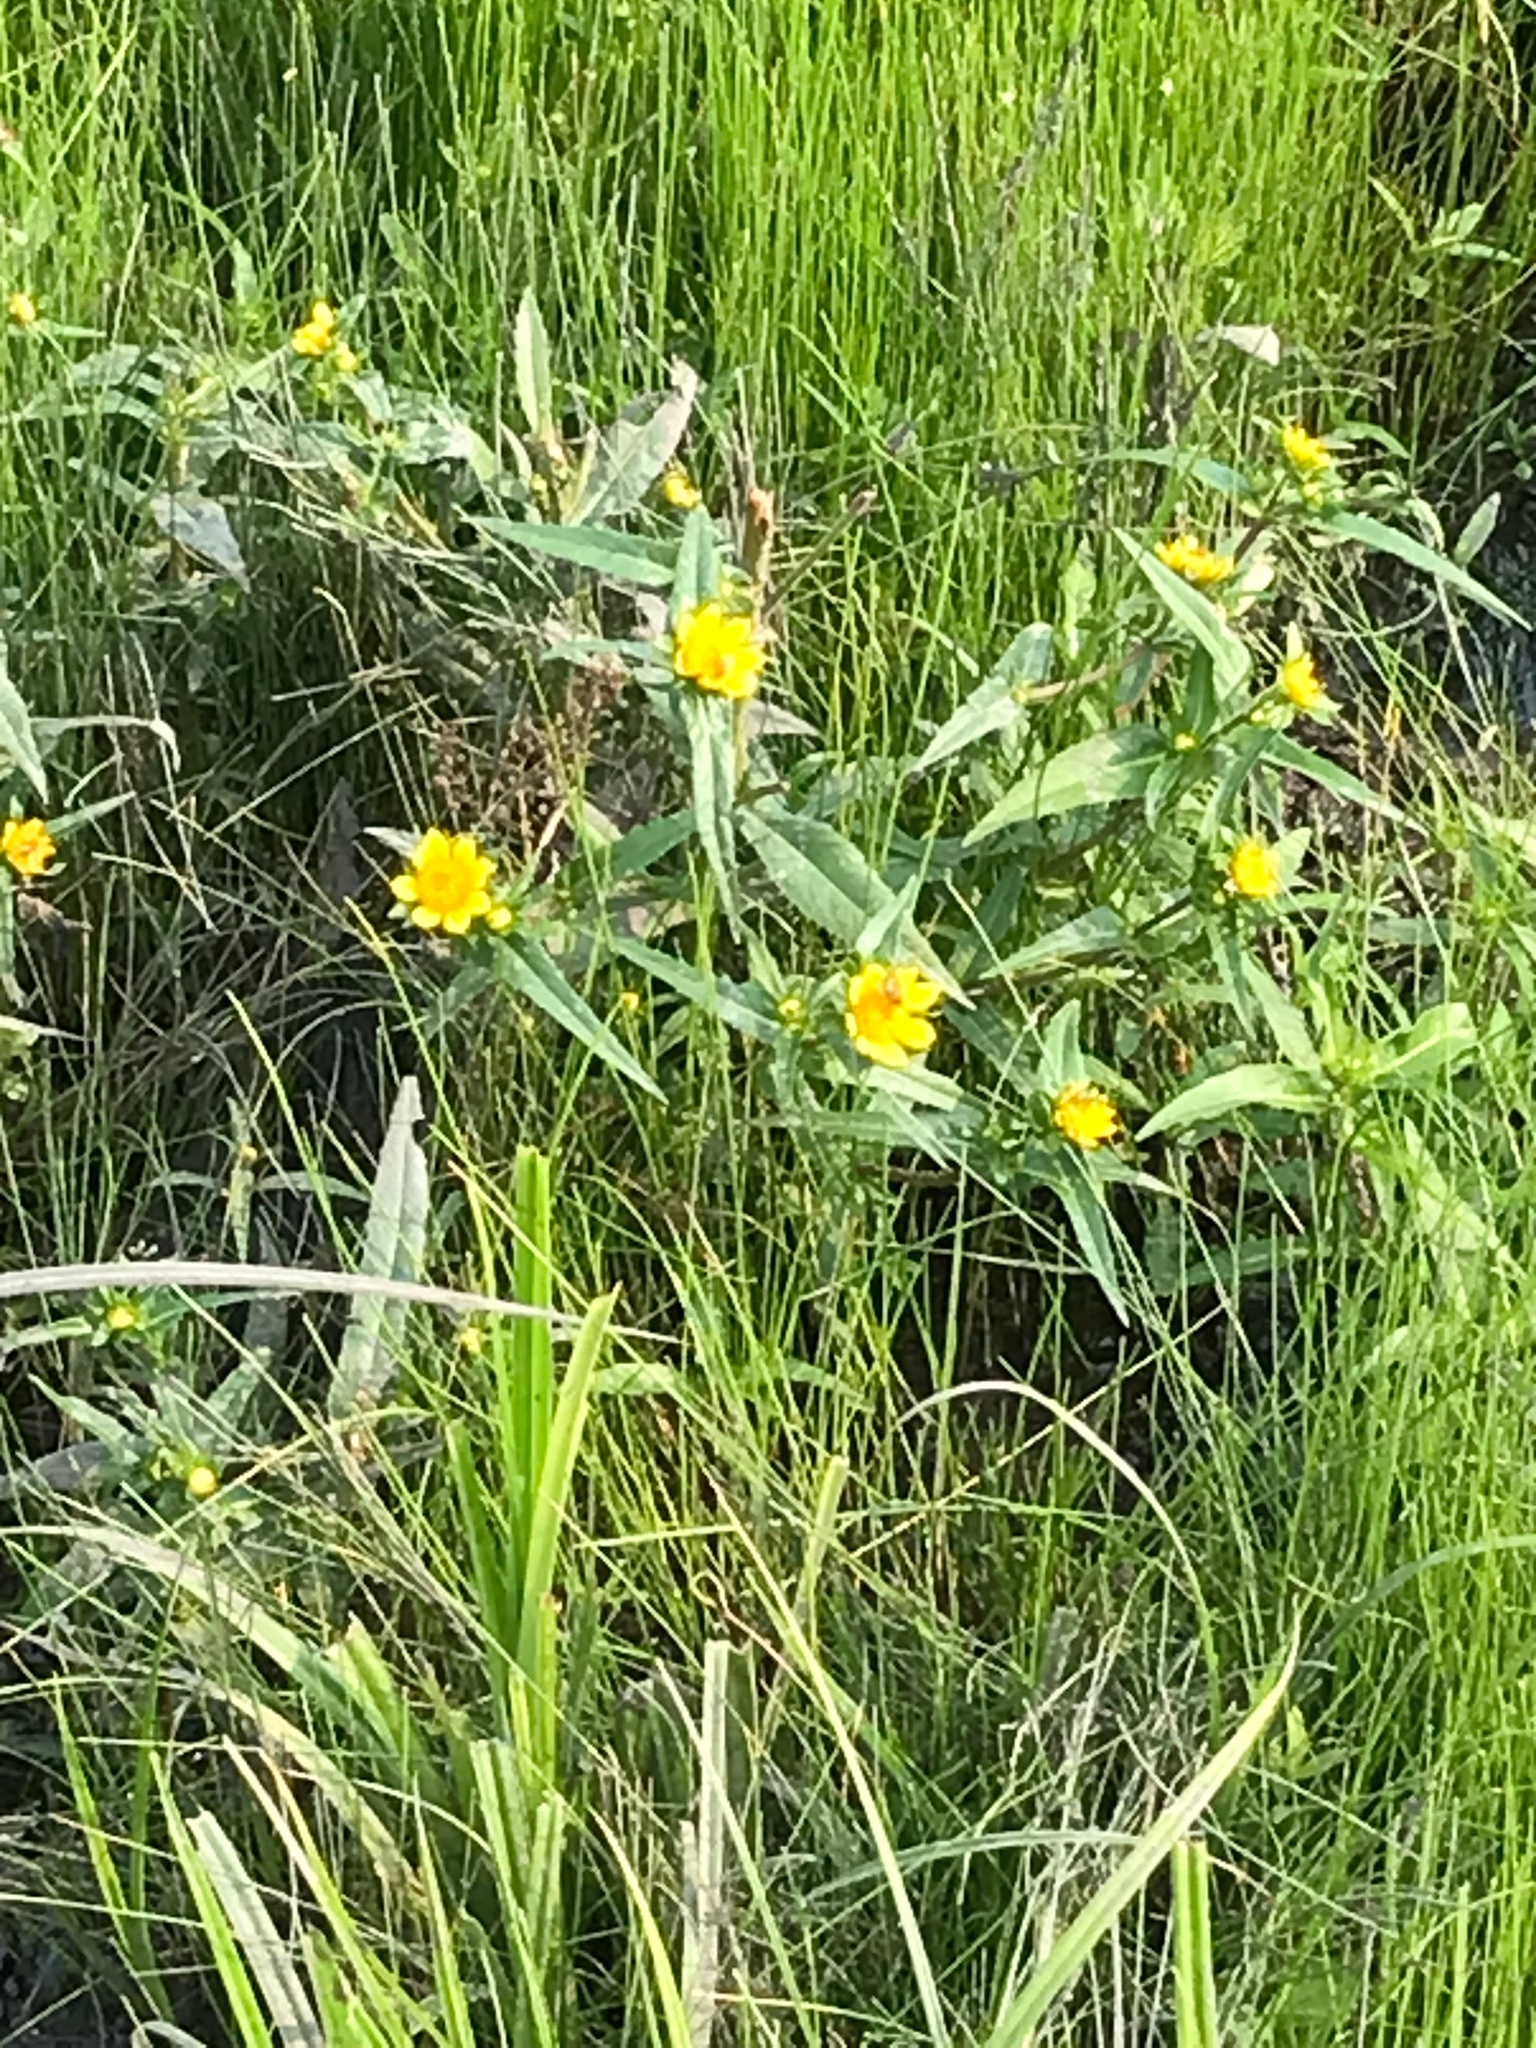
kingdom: Plantae
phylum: Tracheophyta
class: Magnoliopsida
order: Asterales
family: Asteraceae
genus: Bidens
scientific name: Bidens cernua
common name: Nodding bur-marigold
